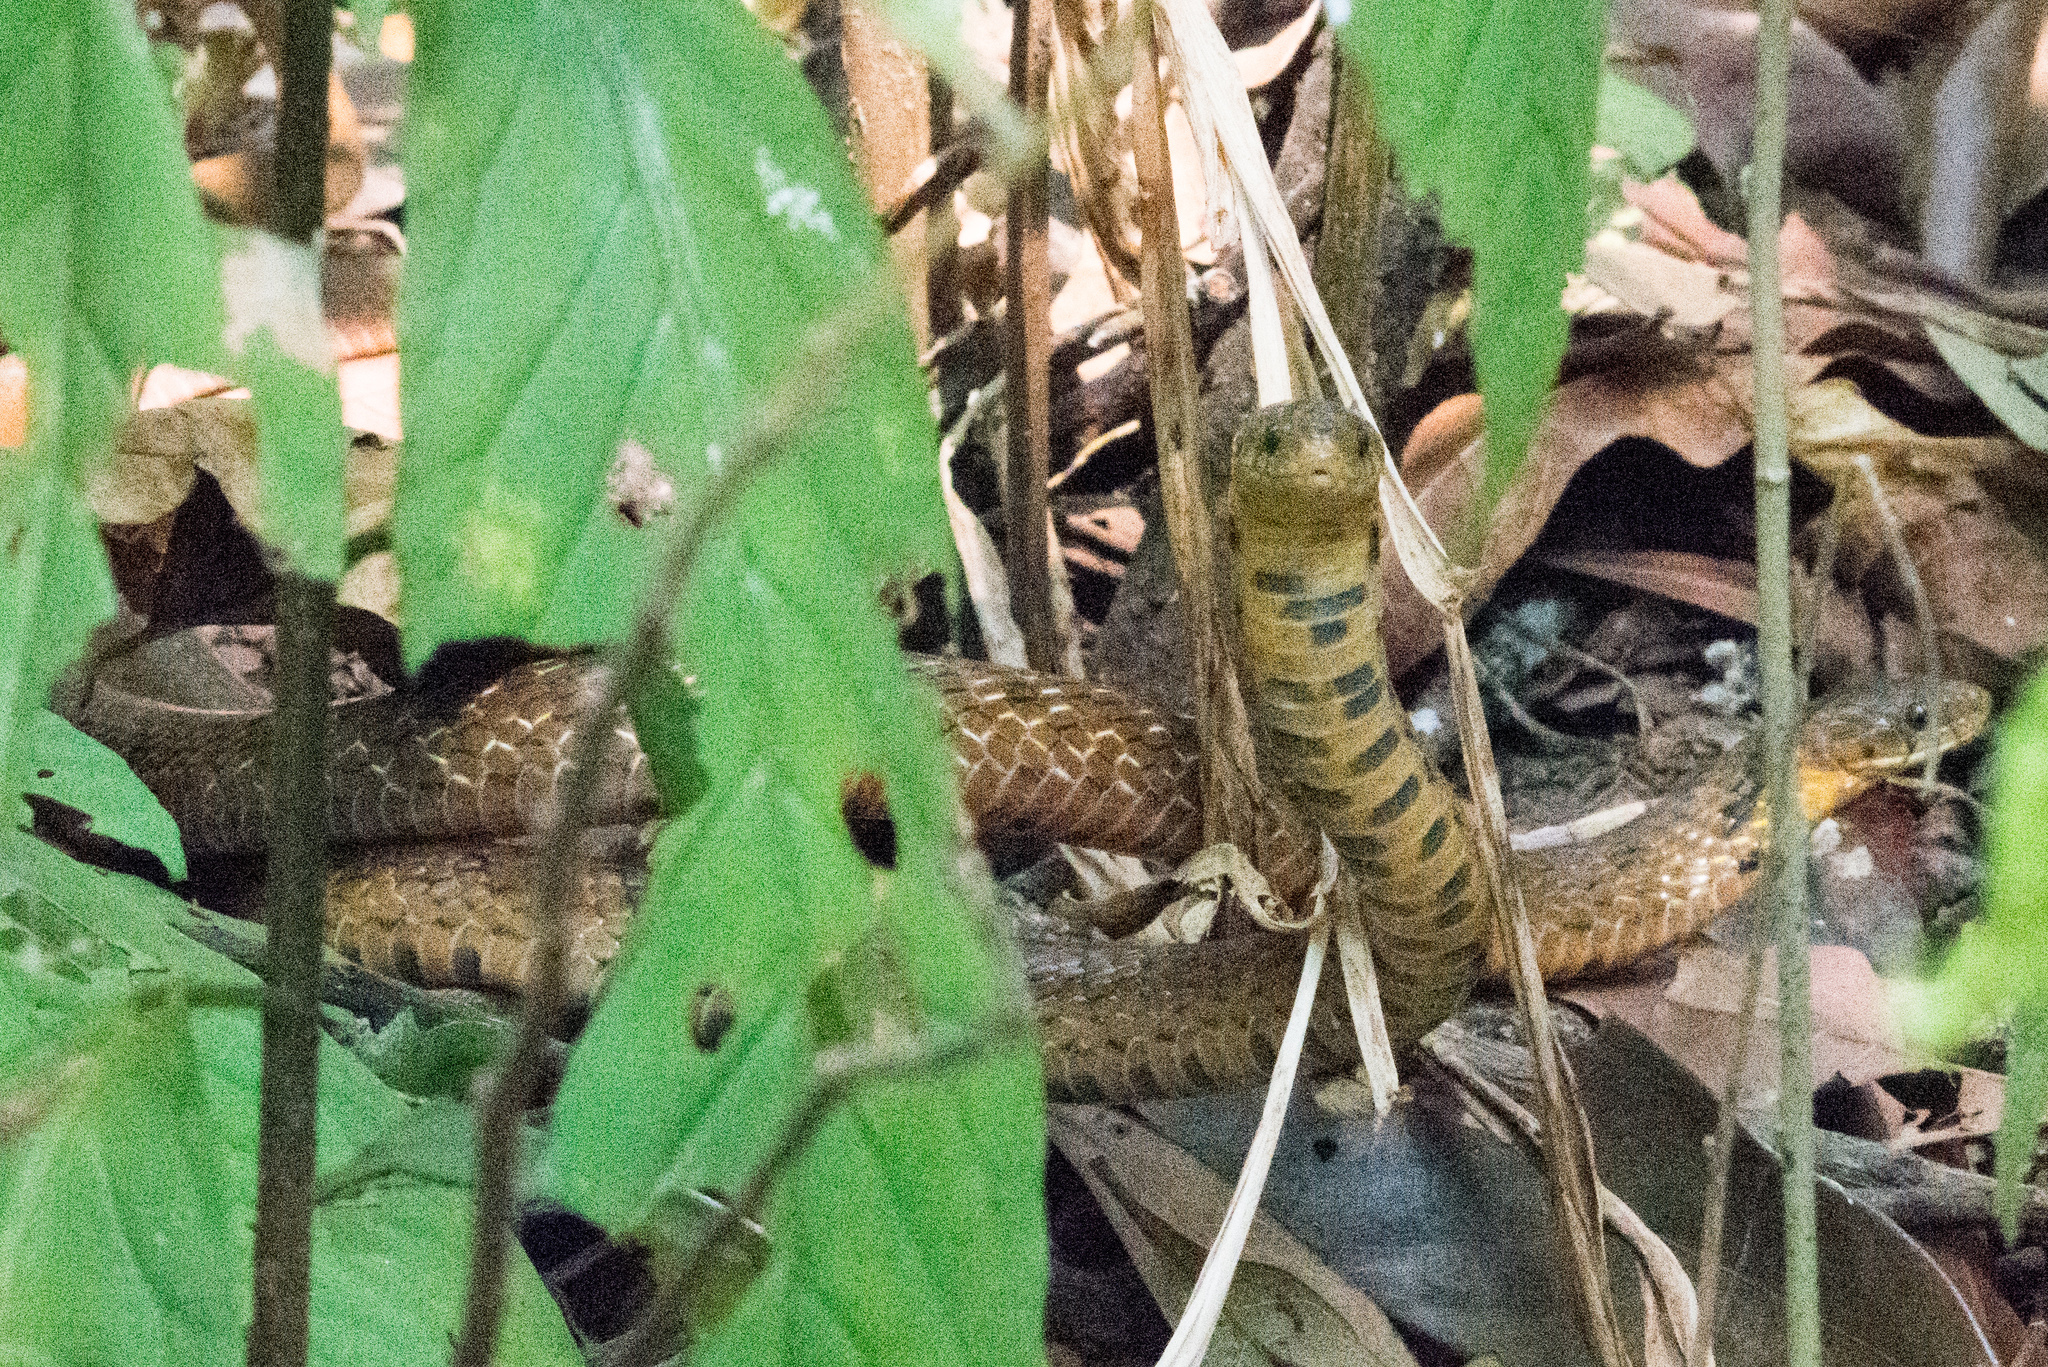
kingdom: Animalia
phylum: Chordata
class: Squamata
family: Colubridae
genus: Plagiopholis
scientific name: Plagiopholis nuchalis
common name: Assam mountain snake
